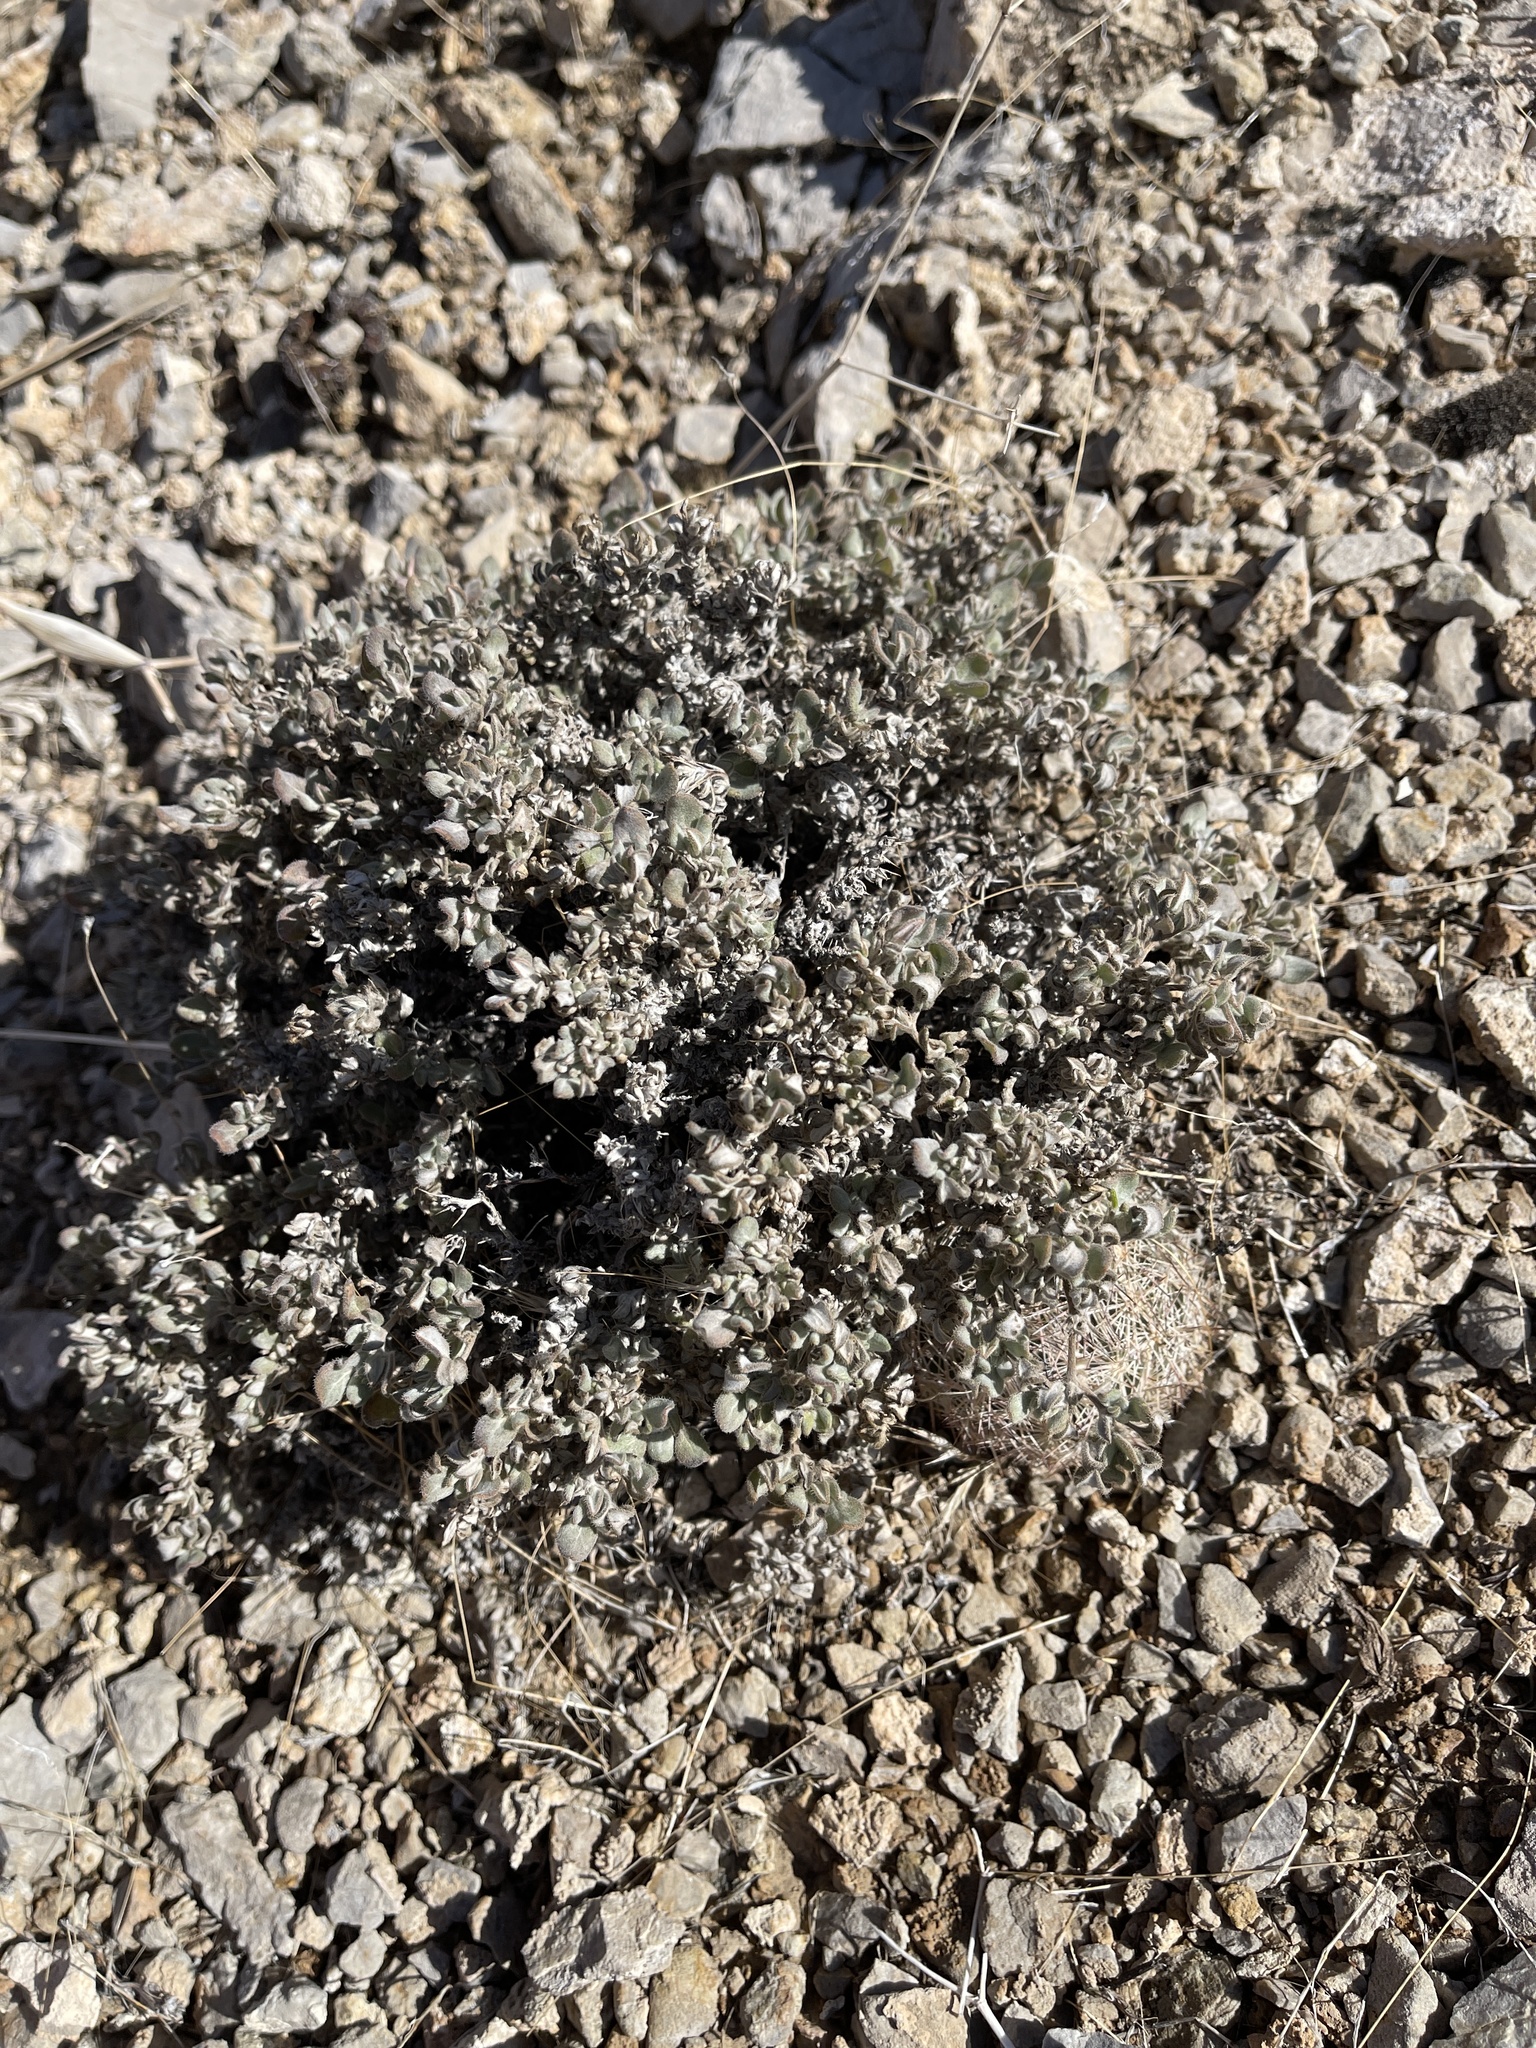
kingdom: Plantae
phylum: Tracheophyta
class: Magnoliopsida
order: Boraginales
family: Ehretiaceae
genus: Tiquilia
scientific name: Tiquilia canescens
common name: Hairy tiquilia
